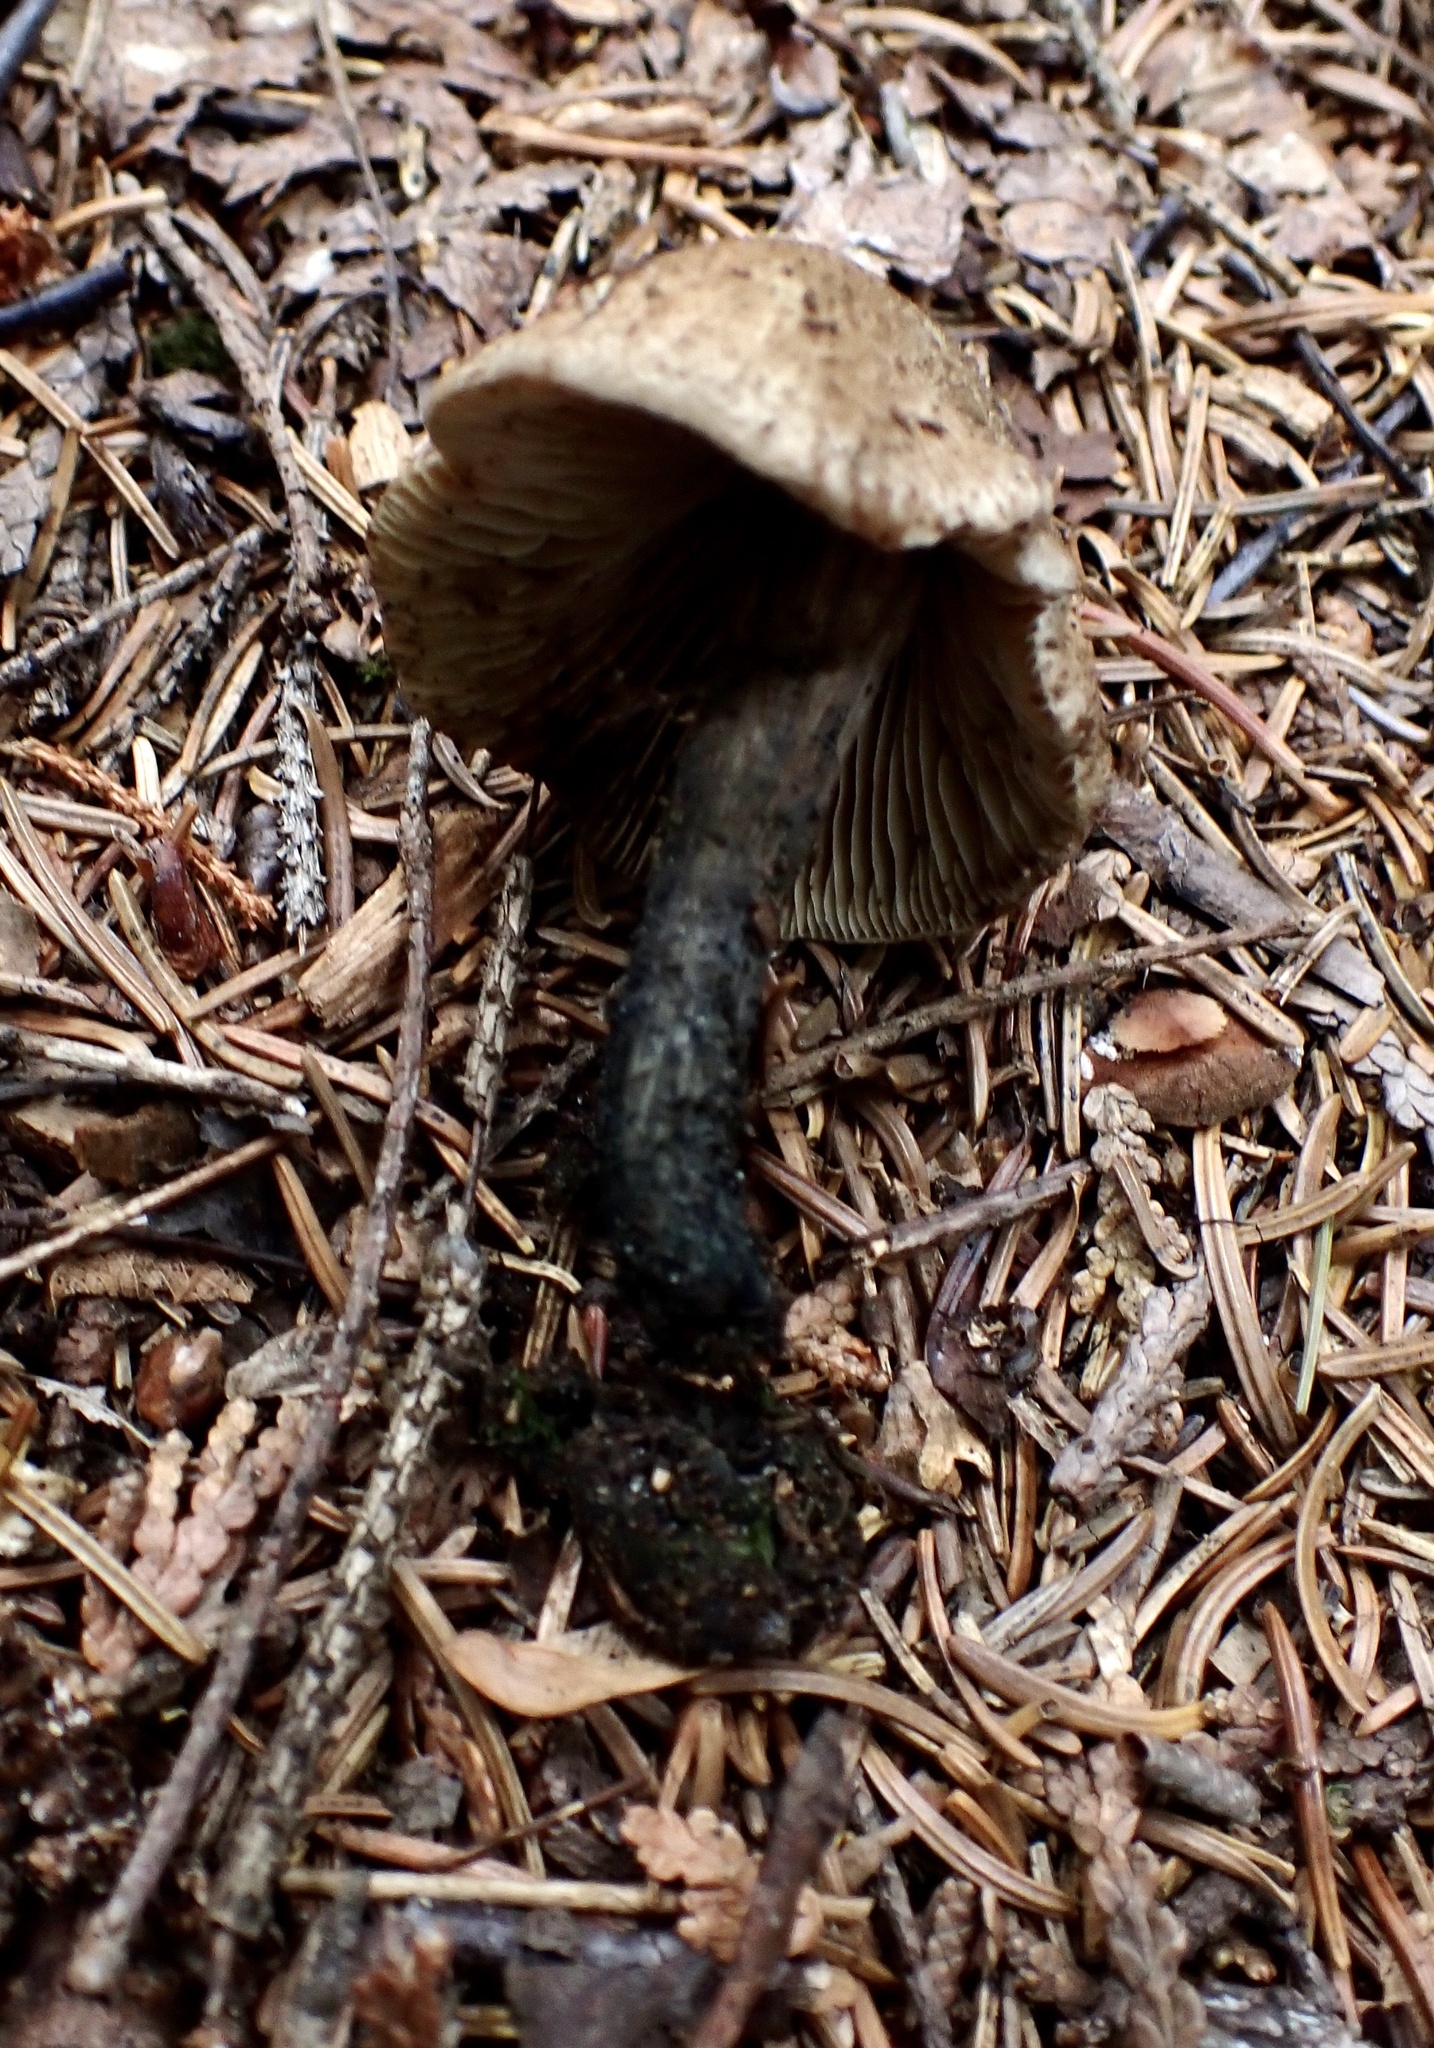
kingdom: Fungi
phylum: Basidiomycota
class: Agaricomycetes
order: Agaricales
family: Inocybaceae
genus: Inosperma
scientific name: Inosperma apiosmotum
